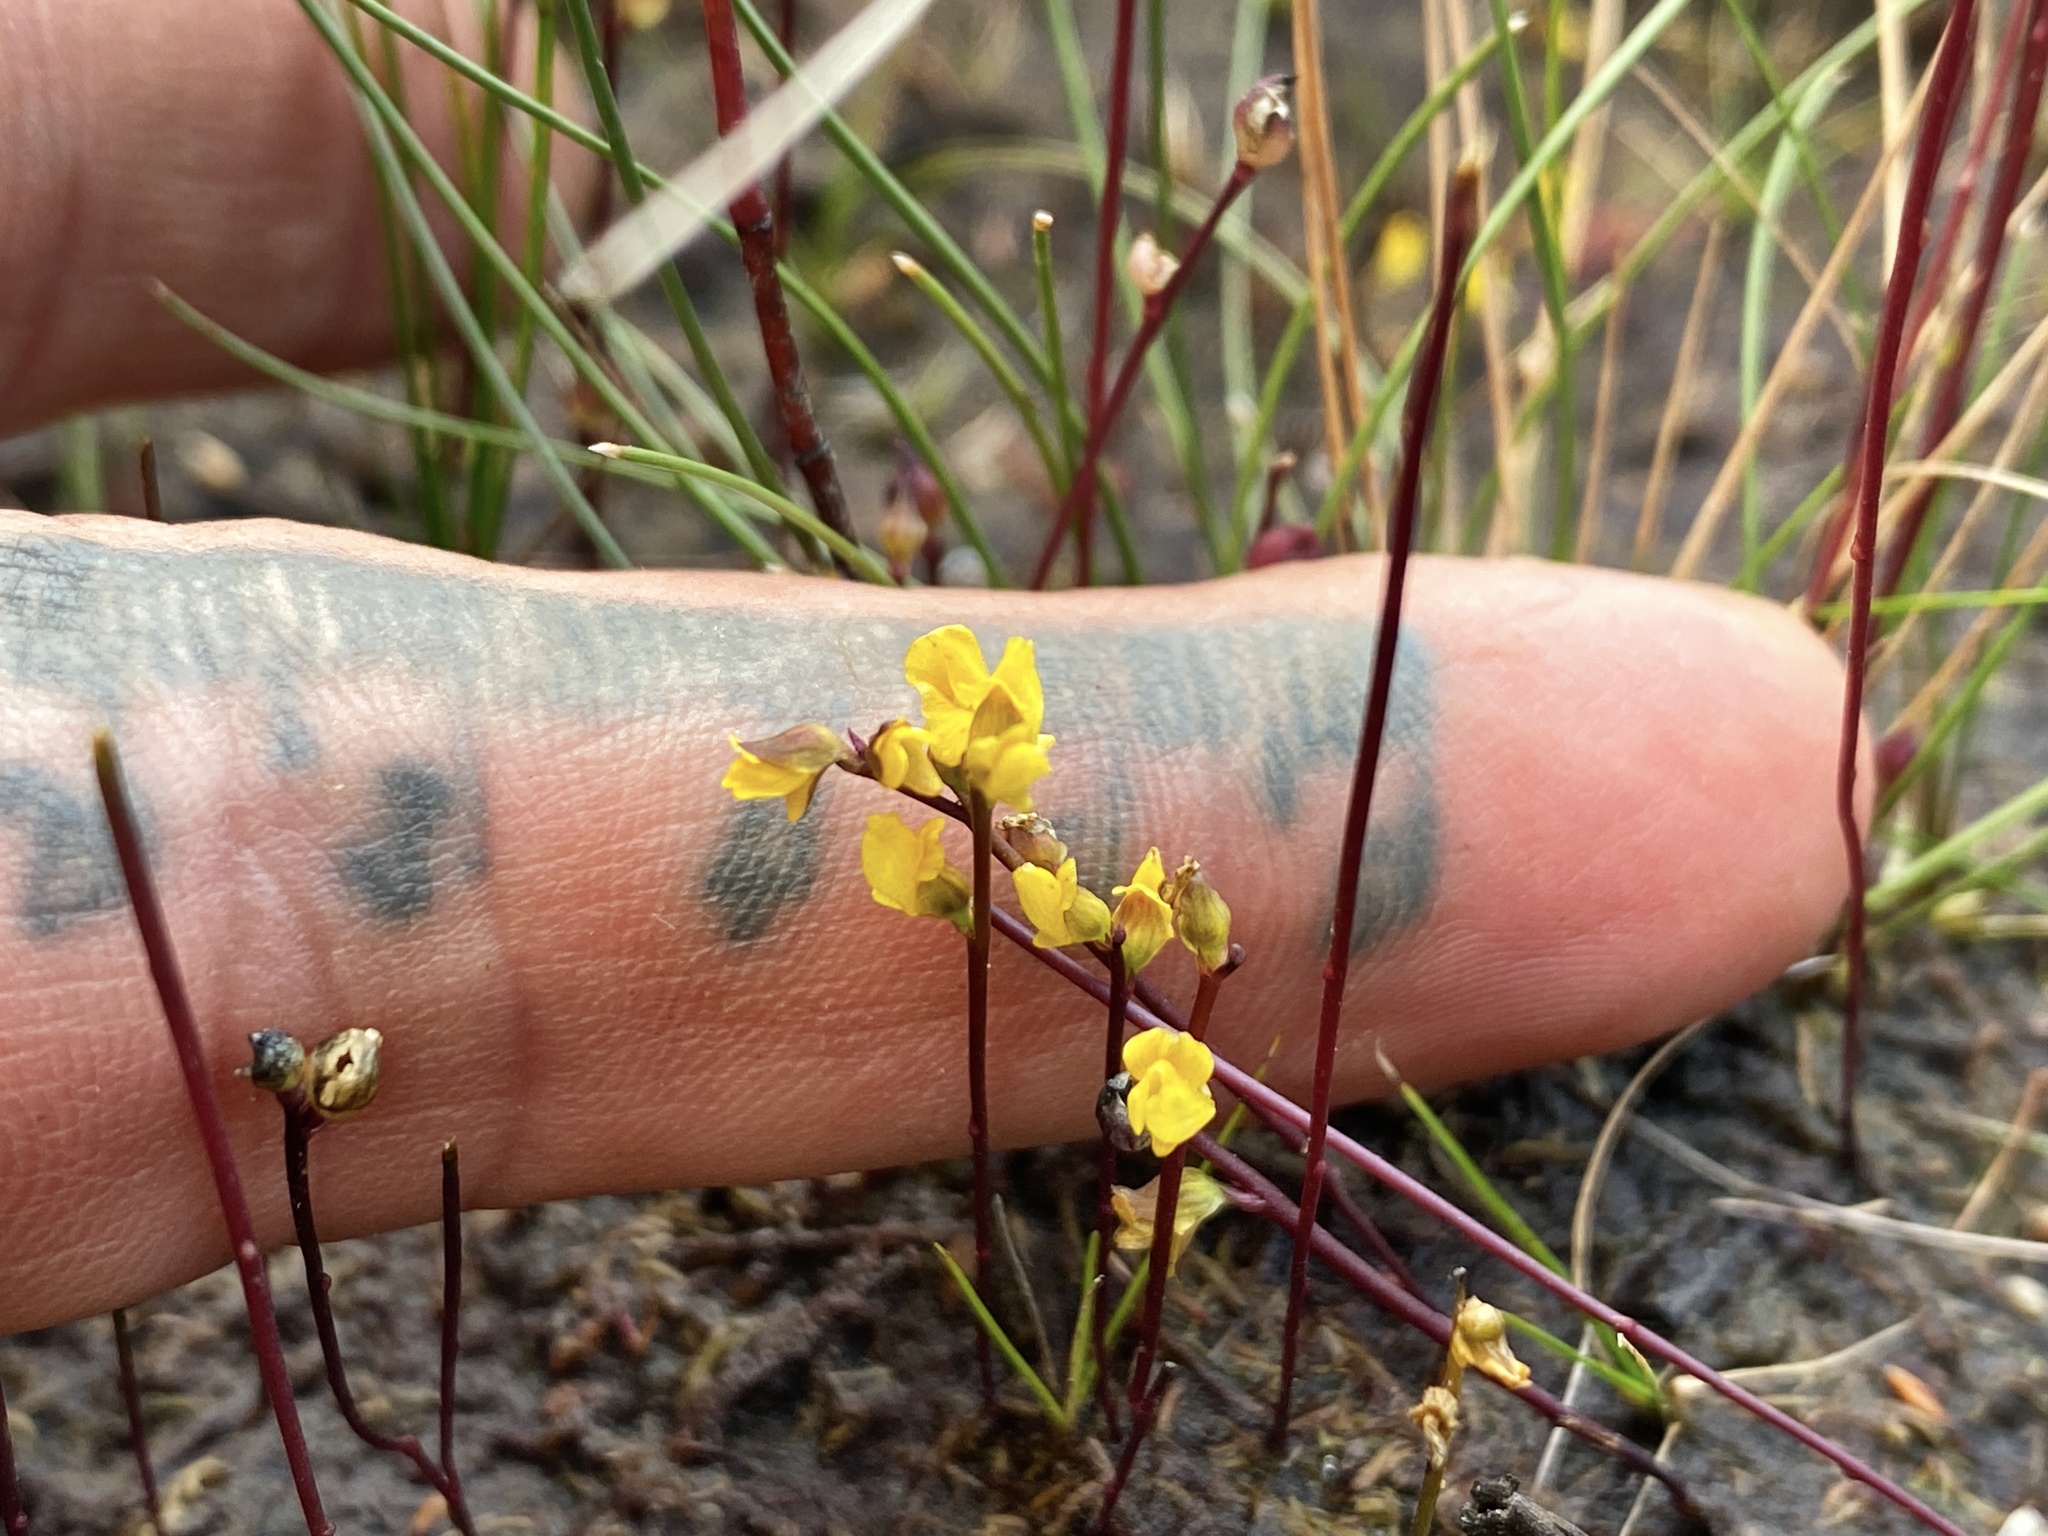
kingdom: Plantae
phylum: Tracheophyta
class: Magnoliopsida
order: Lamiales
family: Lentibulariaceae
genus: Utricularia
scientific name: Utricularia cornuta
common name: Horned bladderwort
